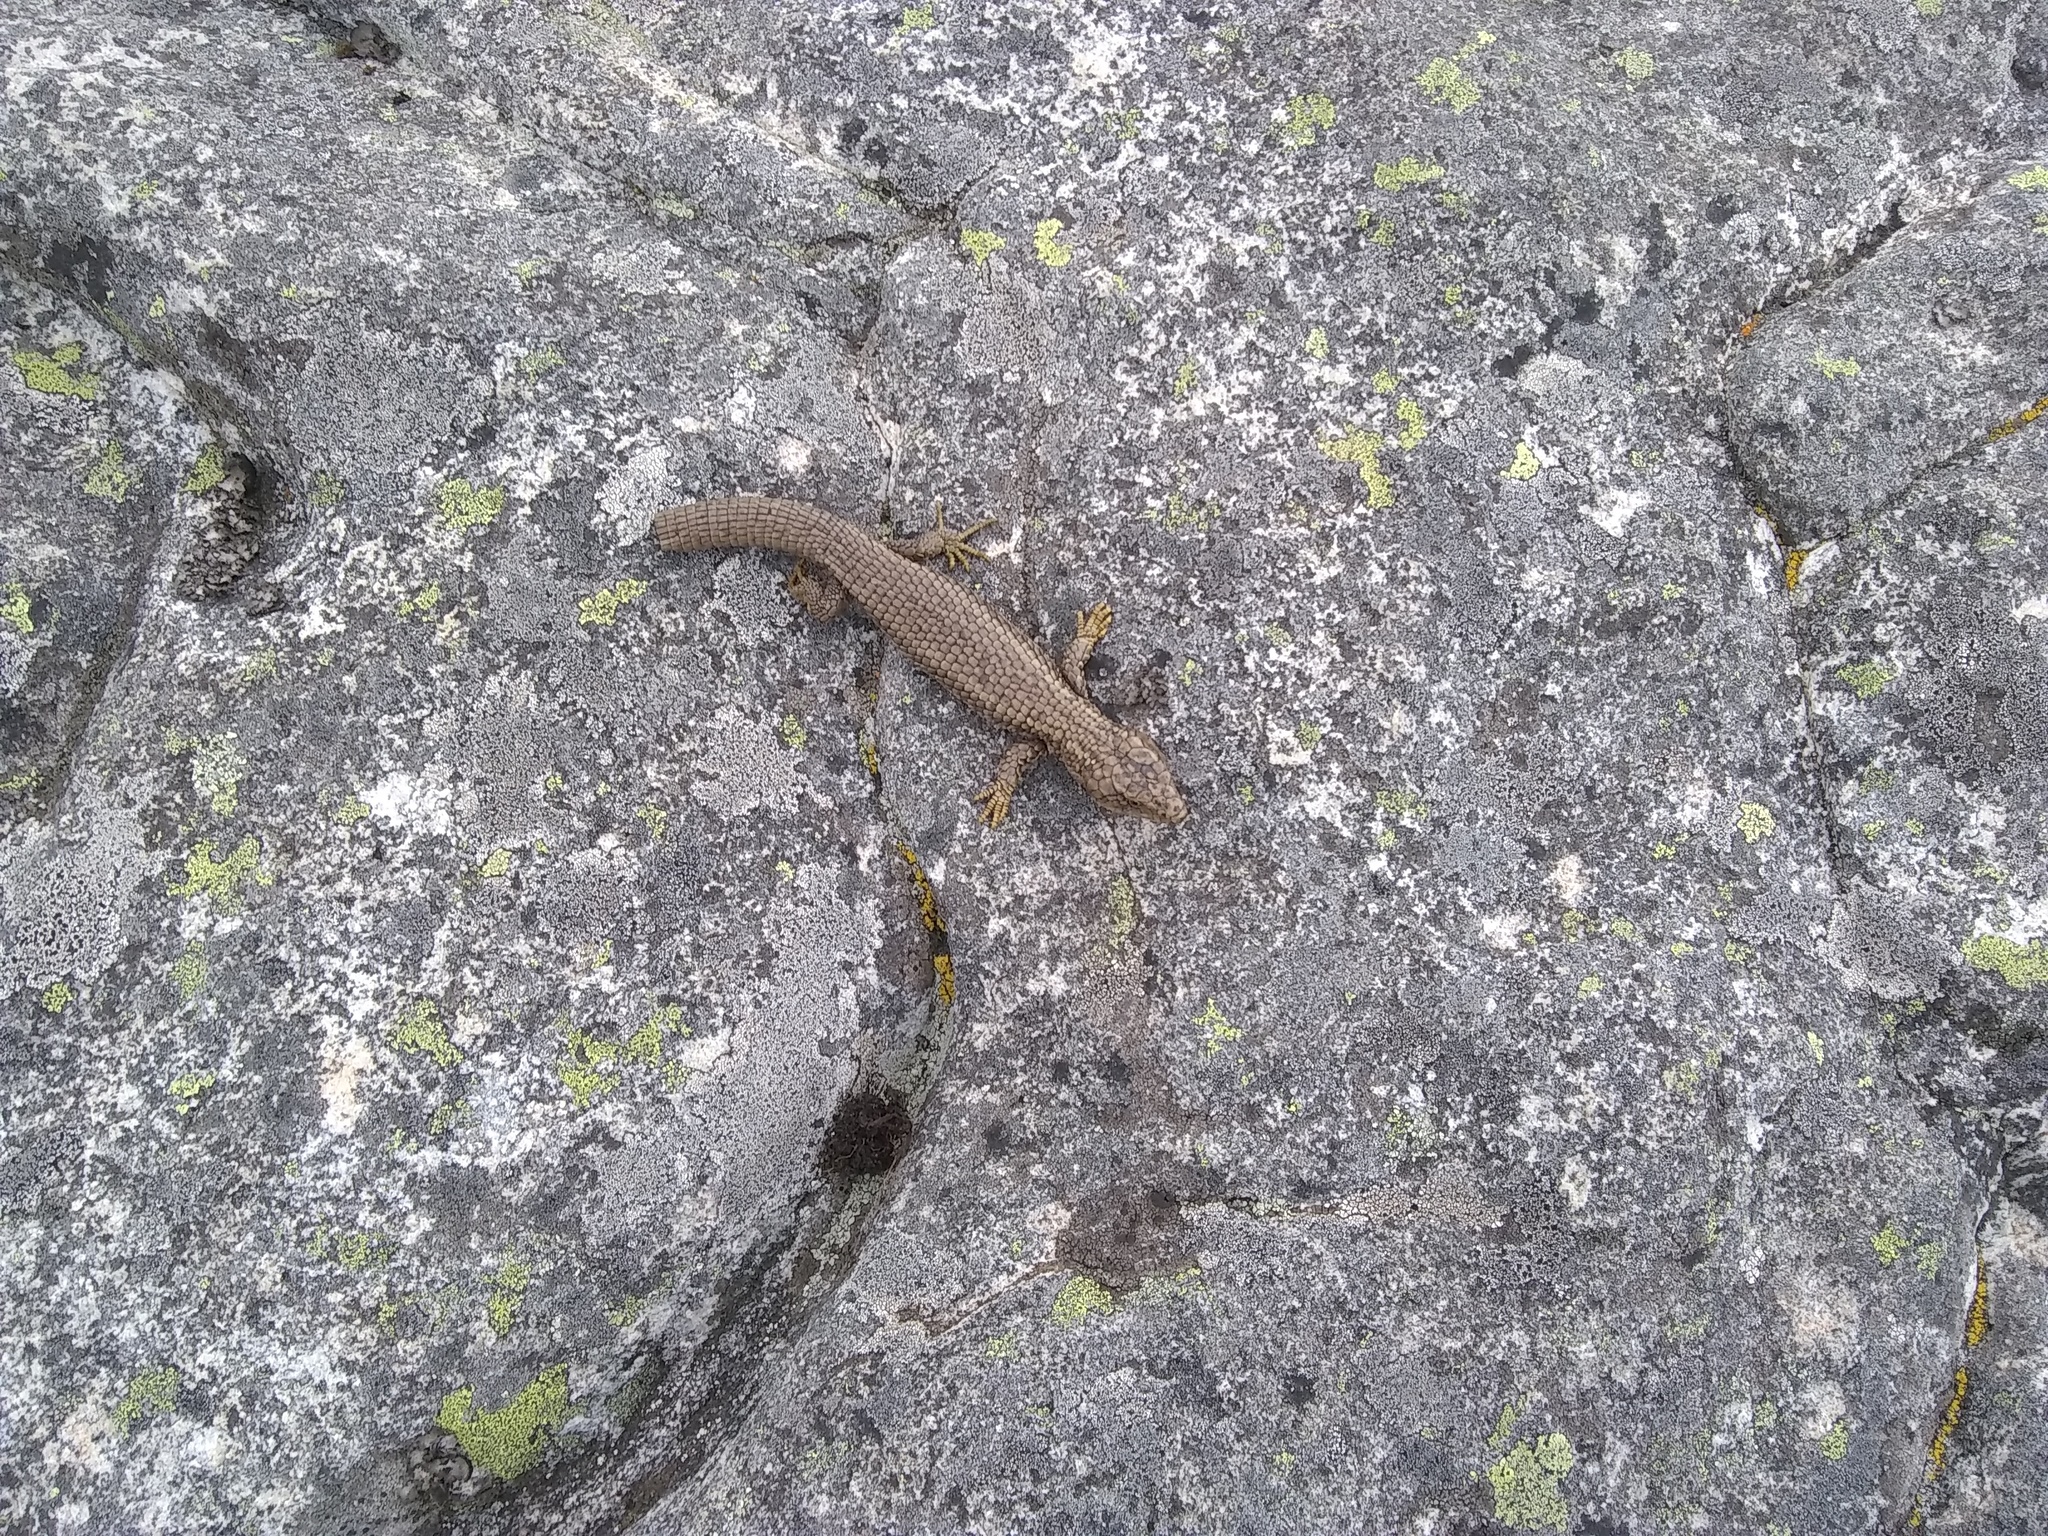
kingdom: Animalia
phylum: Chordata
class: Squamata
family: Gymnophthalmidae
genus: Anadia
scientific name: Anadia bogotensis
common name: Bogota anadia
